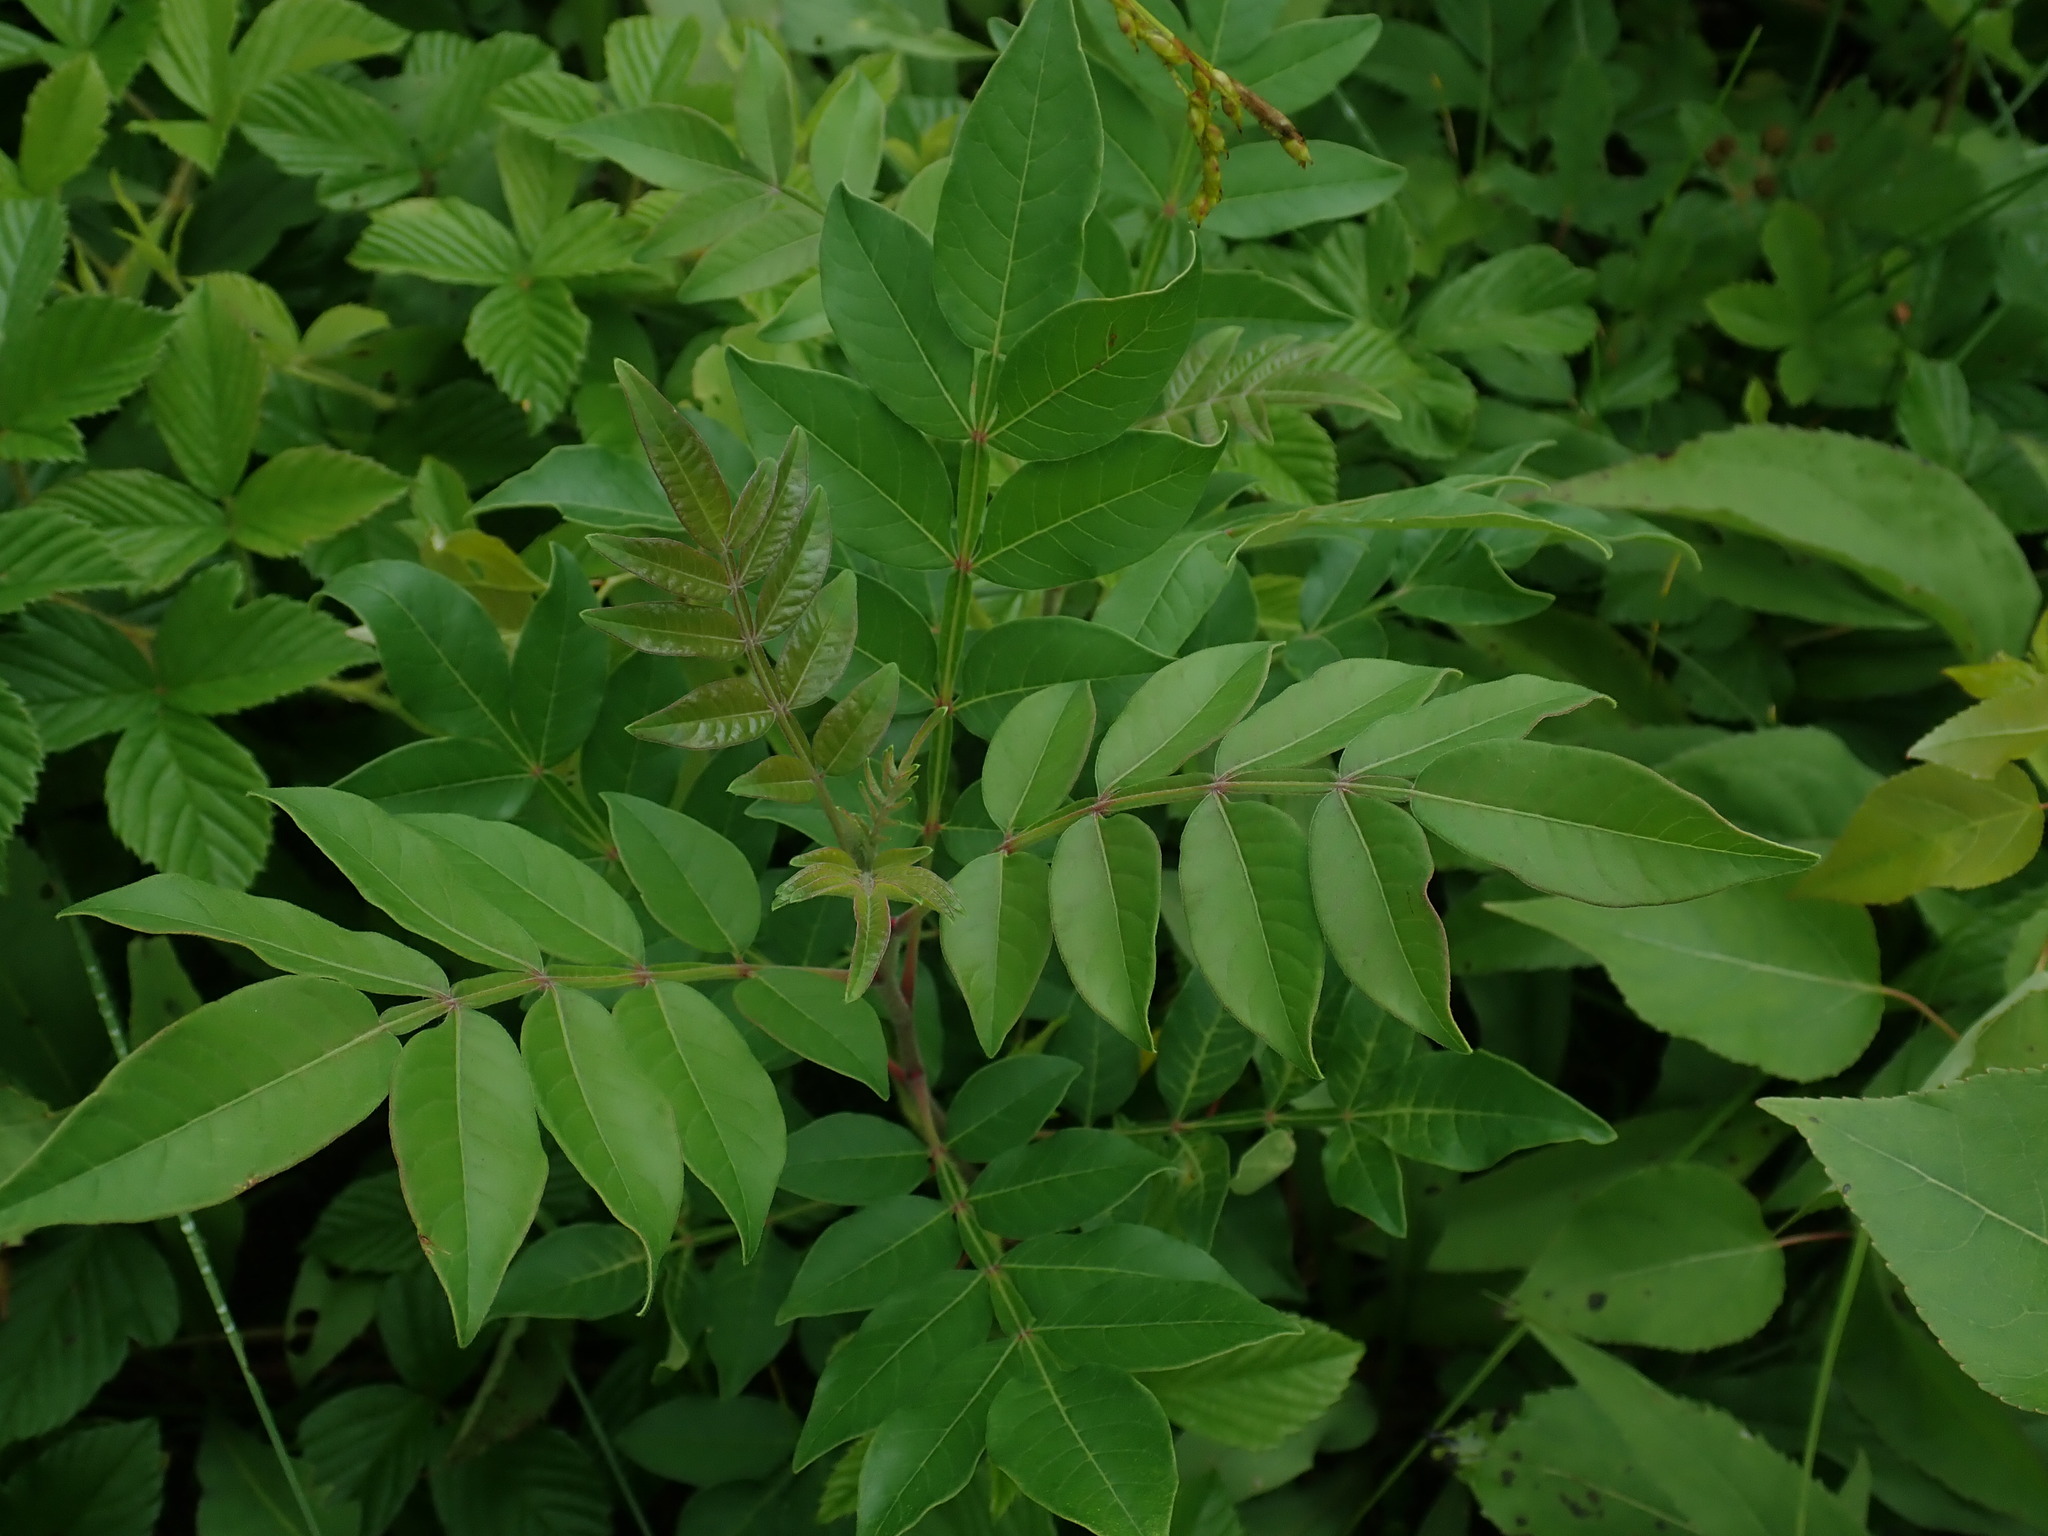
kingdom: Plantae
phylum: Tracheophyta
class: Magnoliopsida
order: Sapindales
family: Anacardiaceae
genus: Rhus
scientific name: Rhus copallina
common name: Shining sumac
